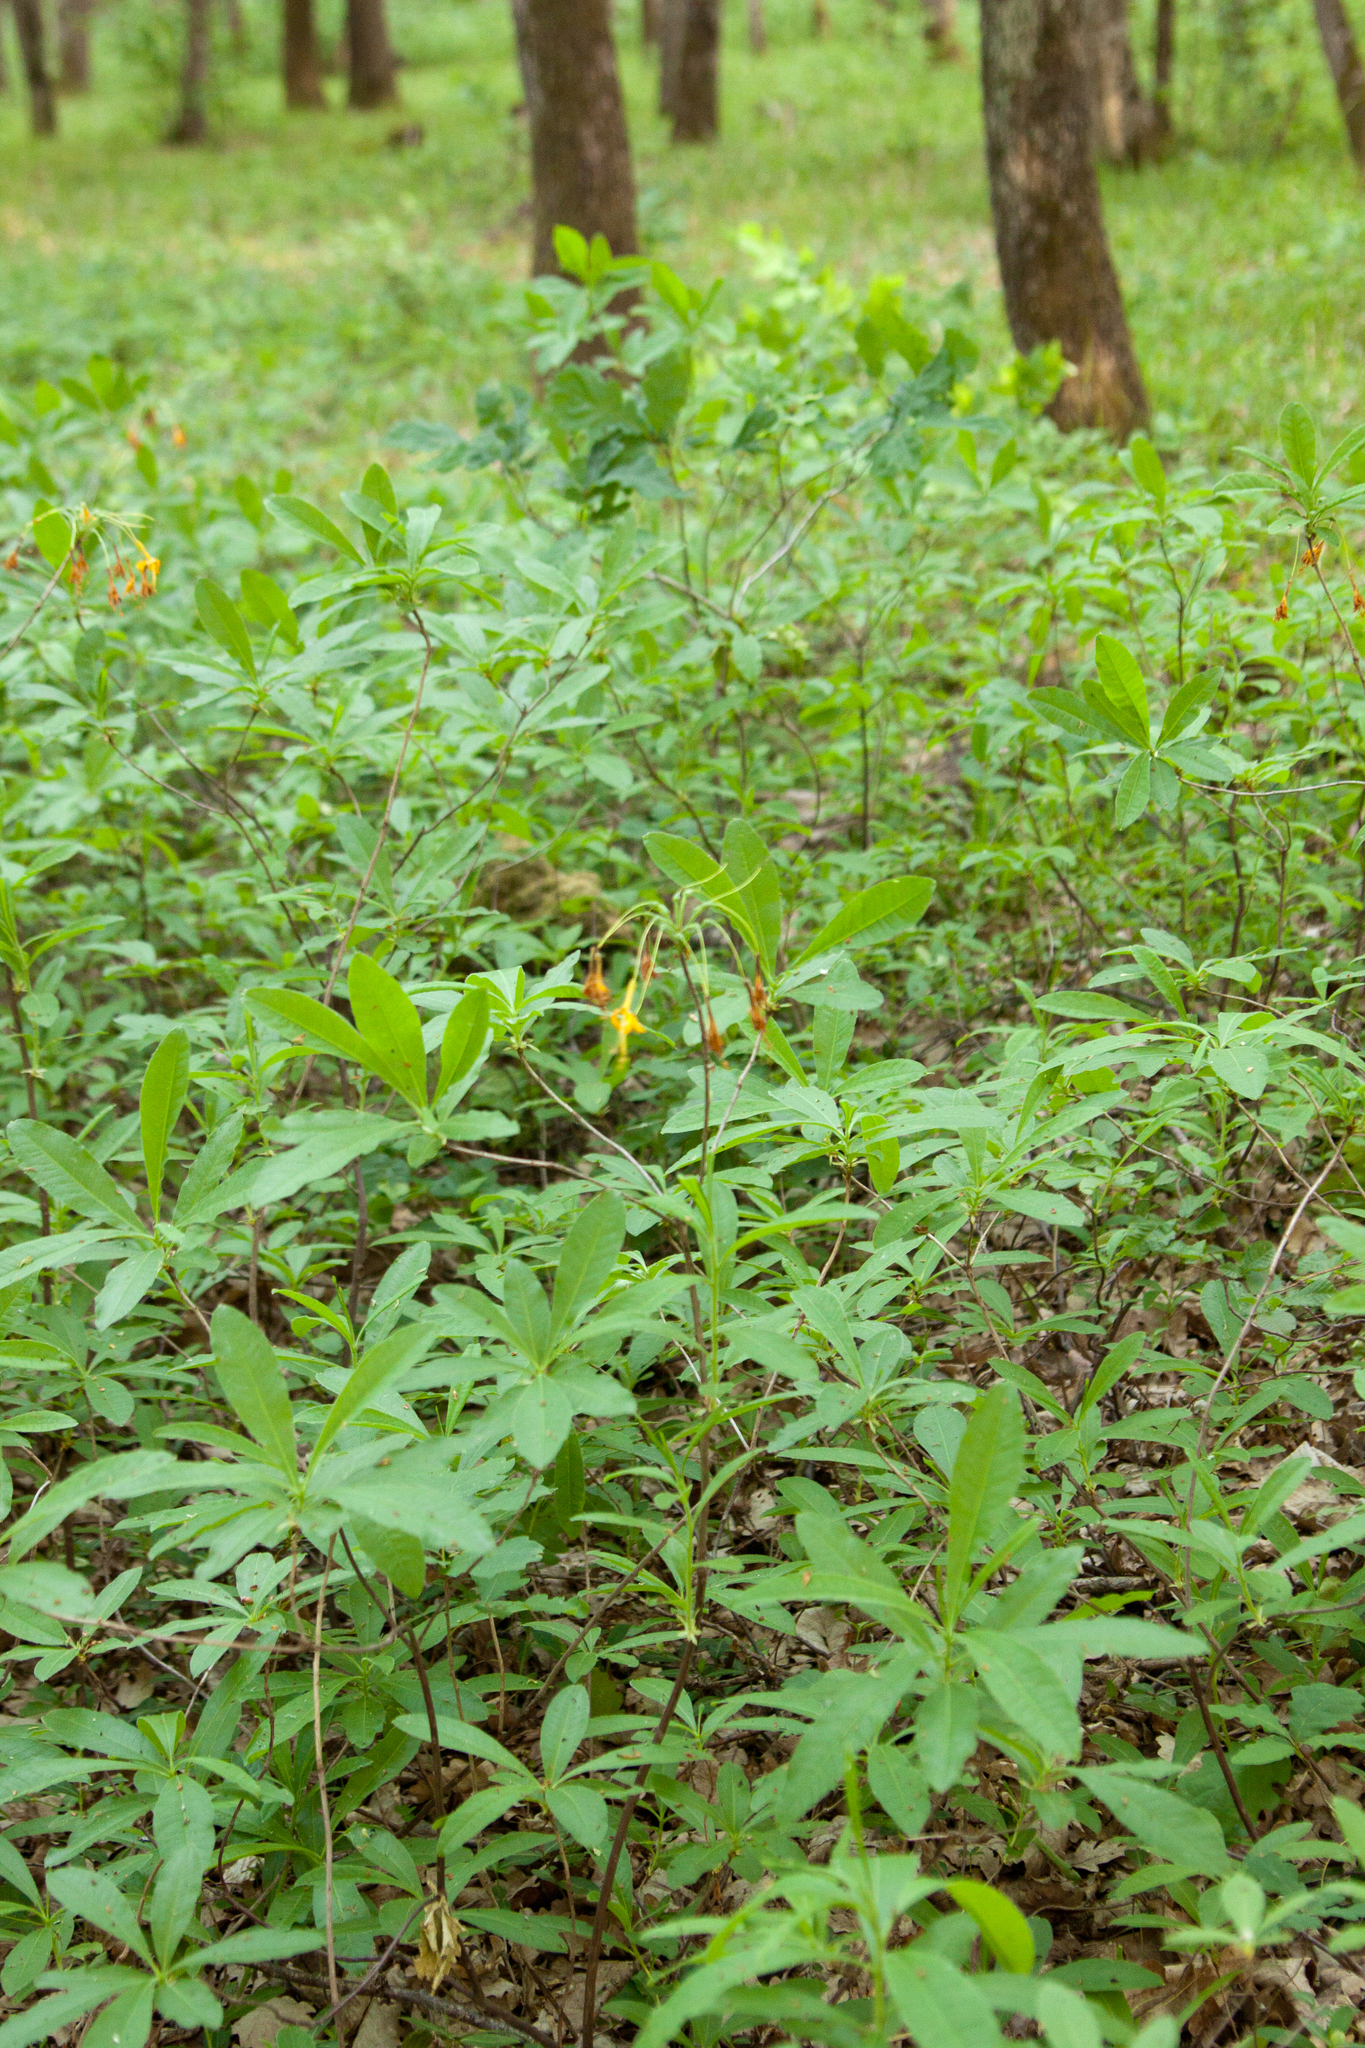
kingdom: Plantae
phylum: Tracheophyta
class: Magnoliopsida
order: Ericales
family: Ericaceae
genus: Rhododendron
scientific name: Rhododendron luteum
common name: Yellow azalea
